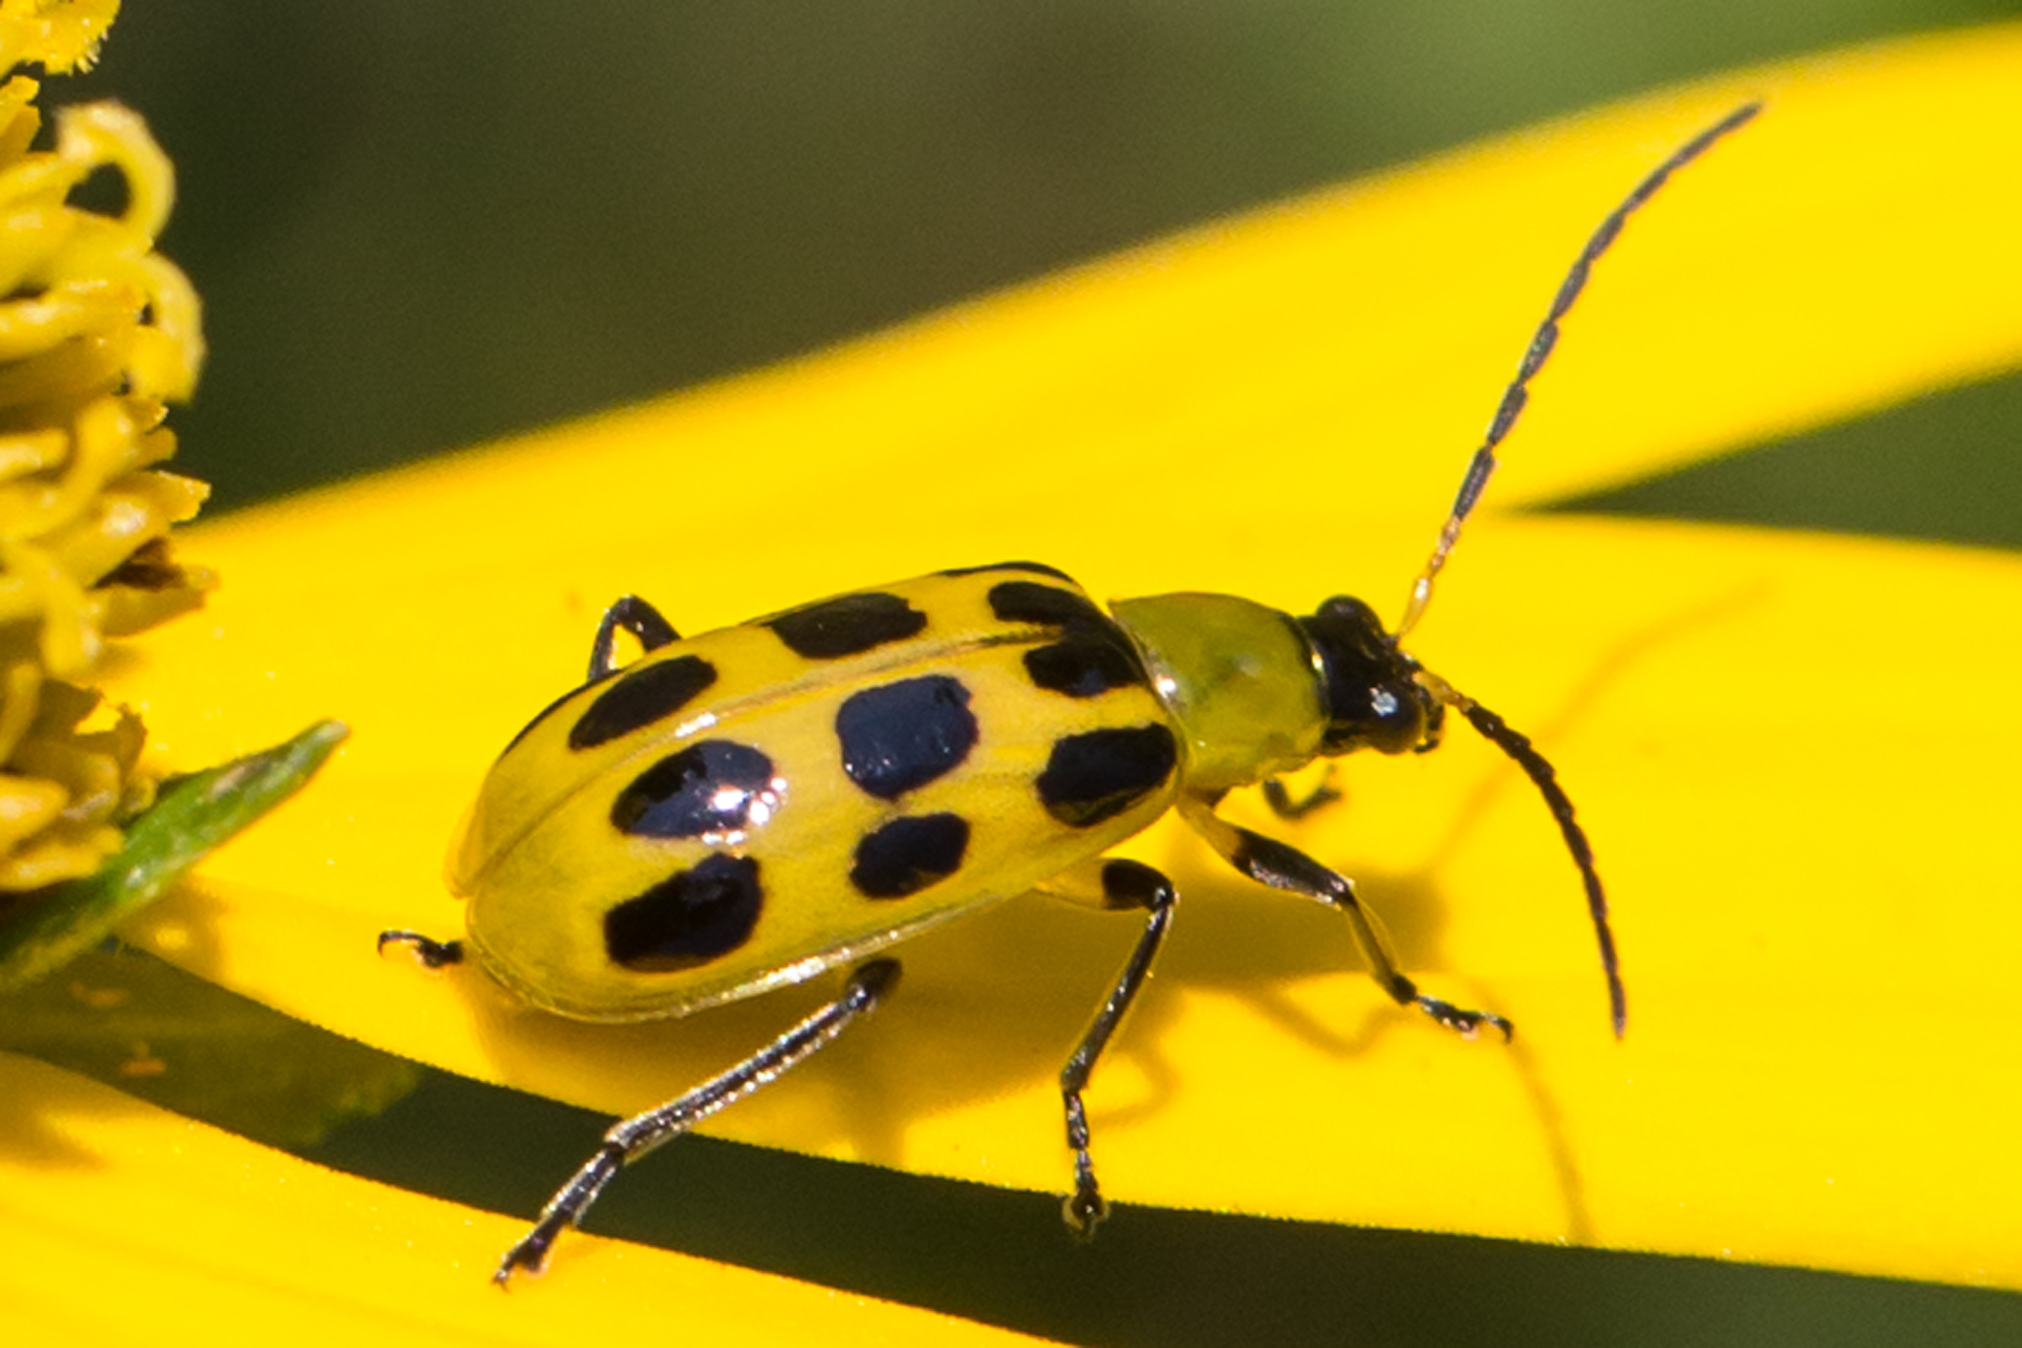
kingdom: Animalia
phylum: Arthropoda
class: Insecta
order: Coleoptera
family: Chrysomelidae
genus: Diabrotica
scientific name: Diabrotica undecimpunctata
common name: Spotted cucumber beetle
